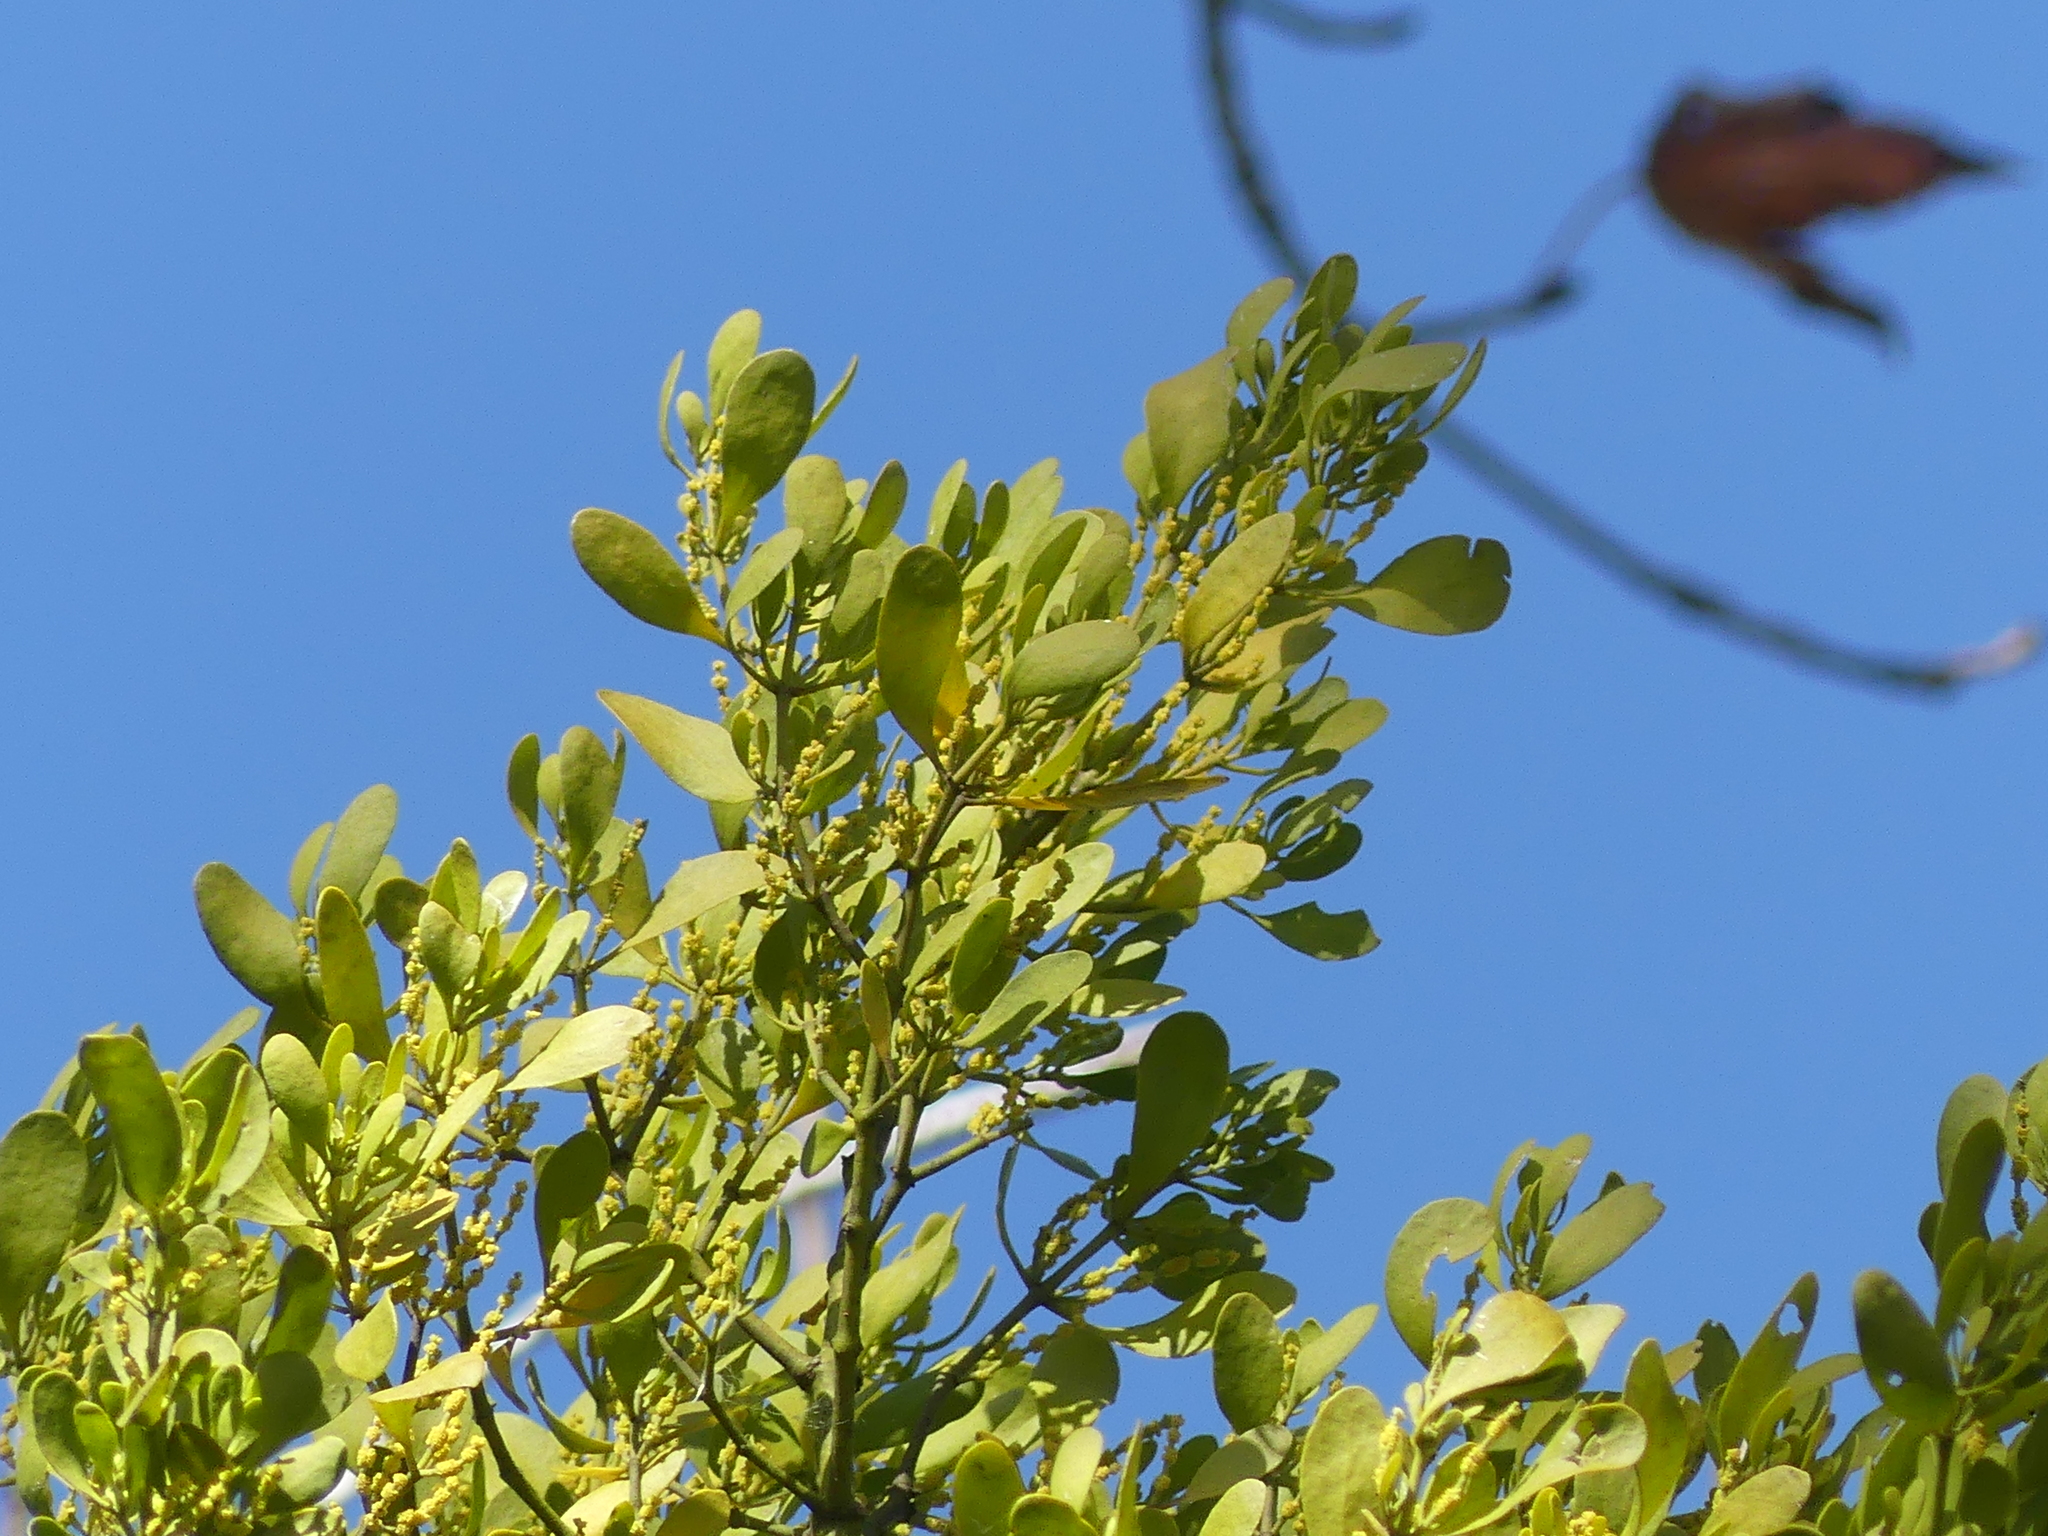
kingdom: Plantae
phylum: Tracheophyta
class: Magnoliopsida
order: Santalales
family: Viscaceae
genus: Phoradendron
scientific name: Phoradendron leucarpum
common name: Pacific mistletoe
